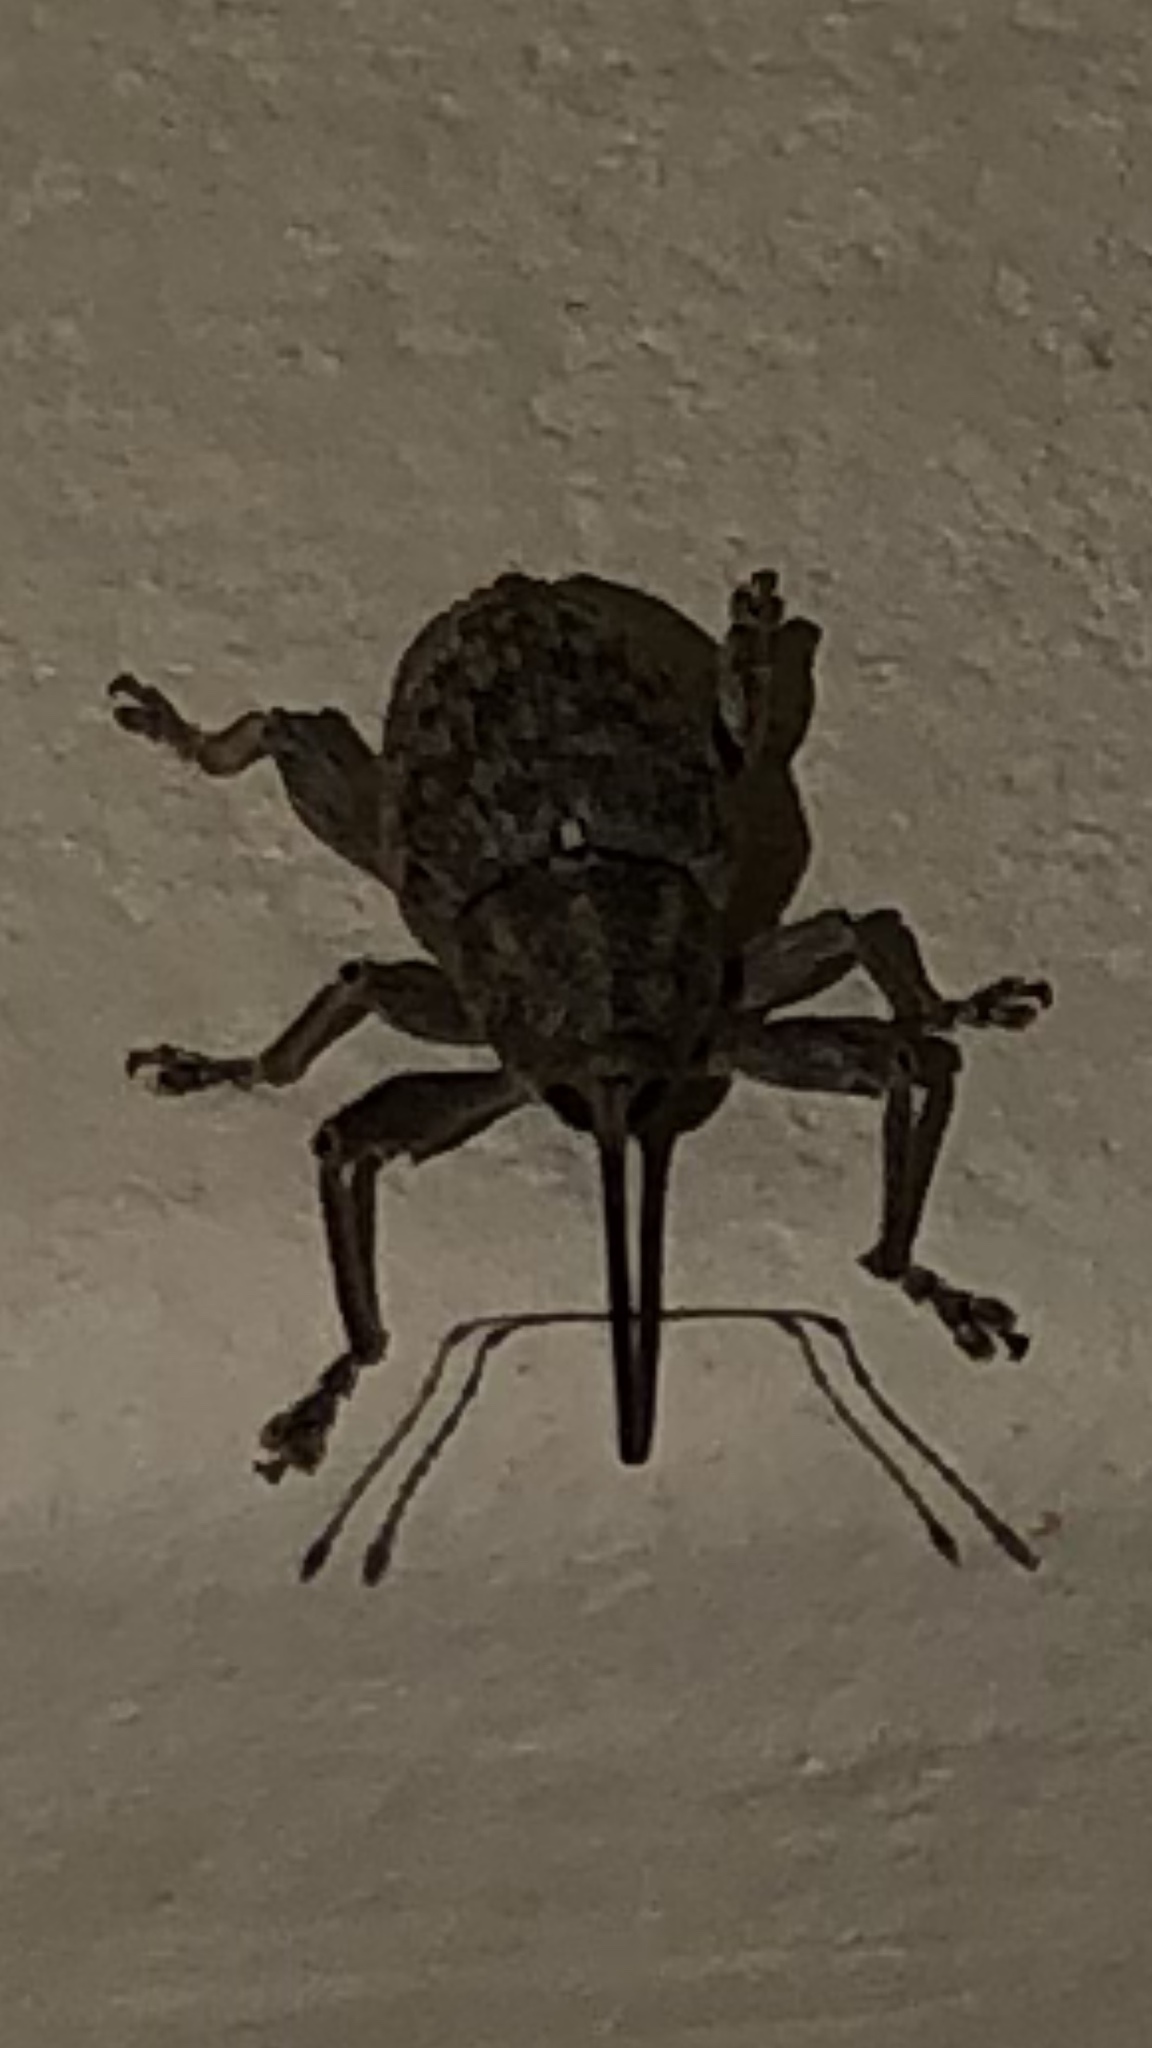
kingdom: Animalia
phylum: Arthropoda
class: Insecta
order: Coleoptera
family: Curculionidae
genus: Curculio
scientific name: Curculio
